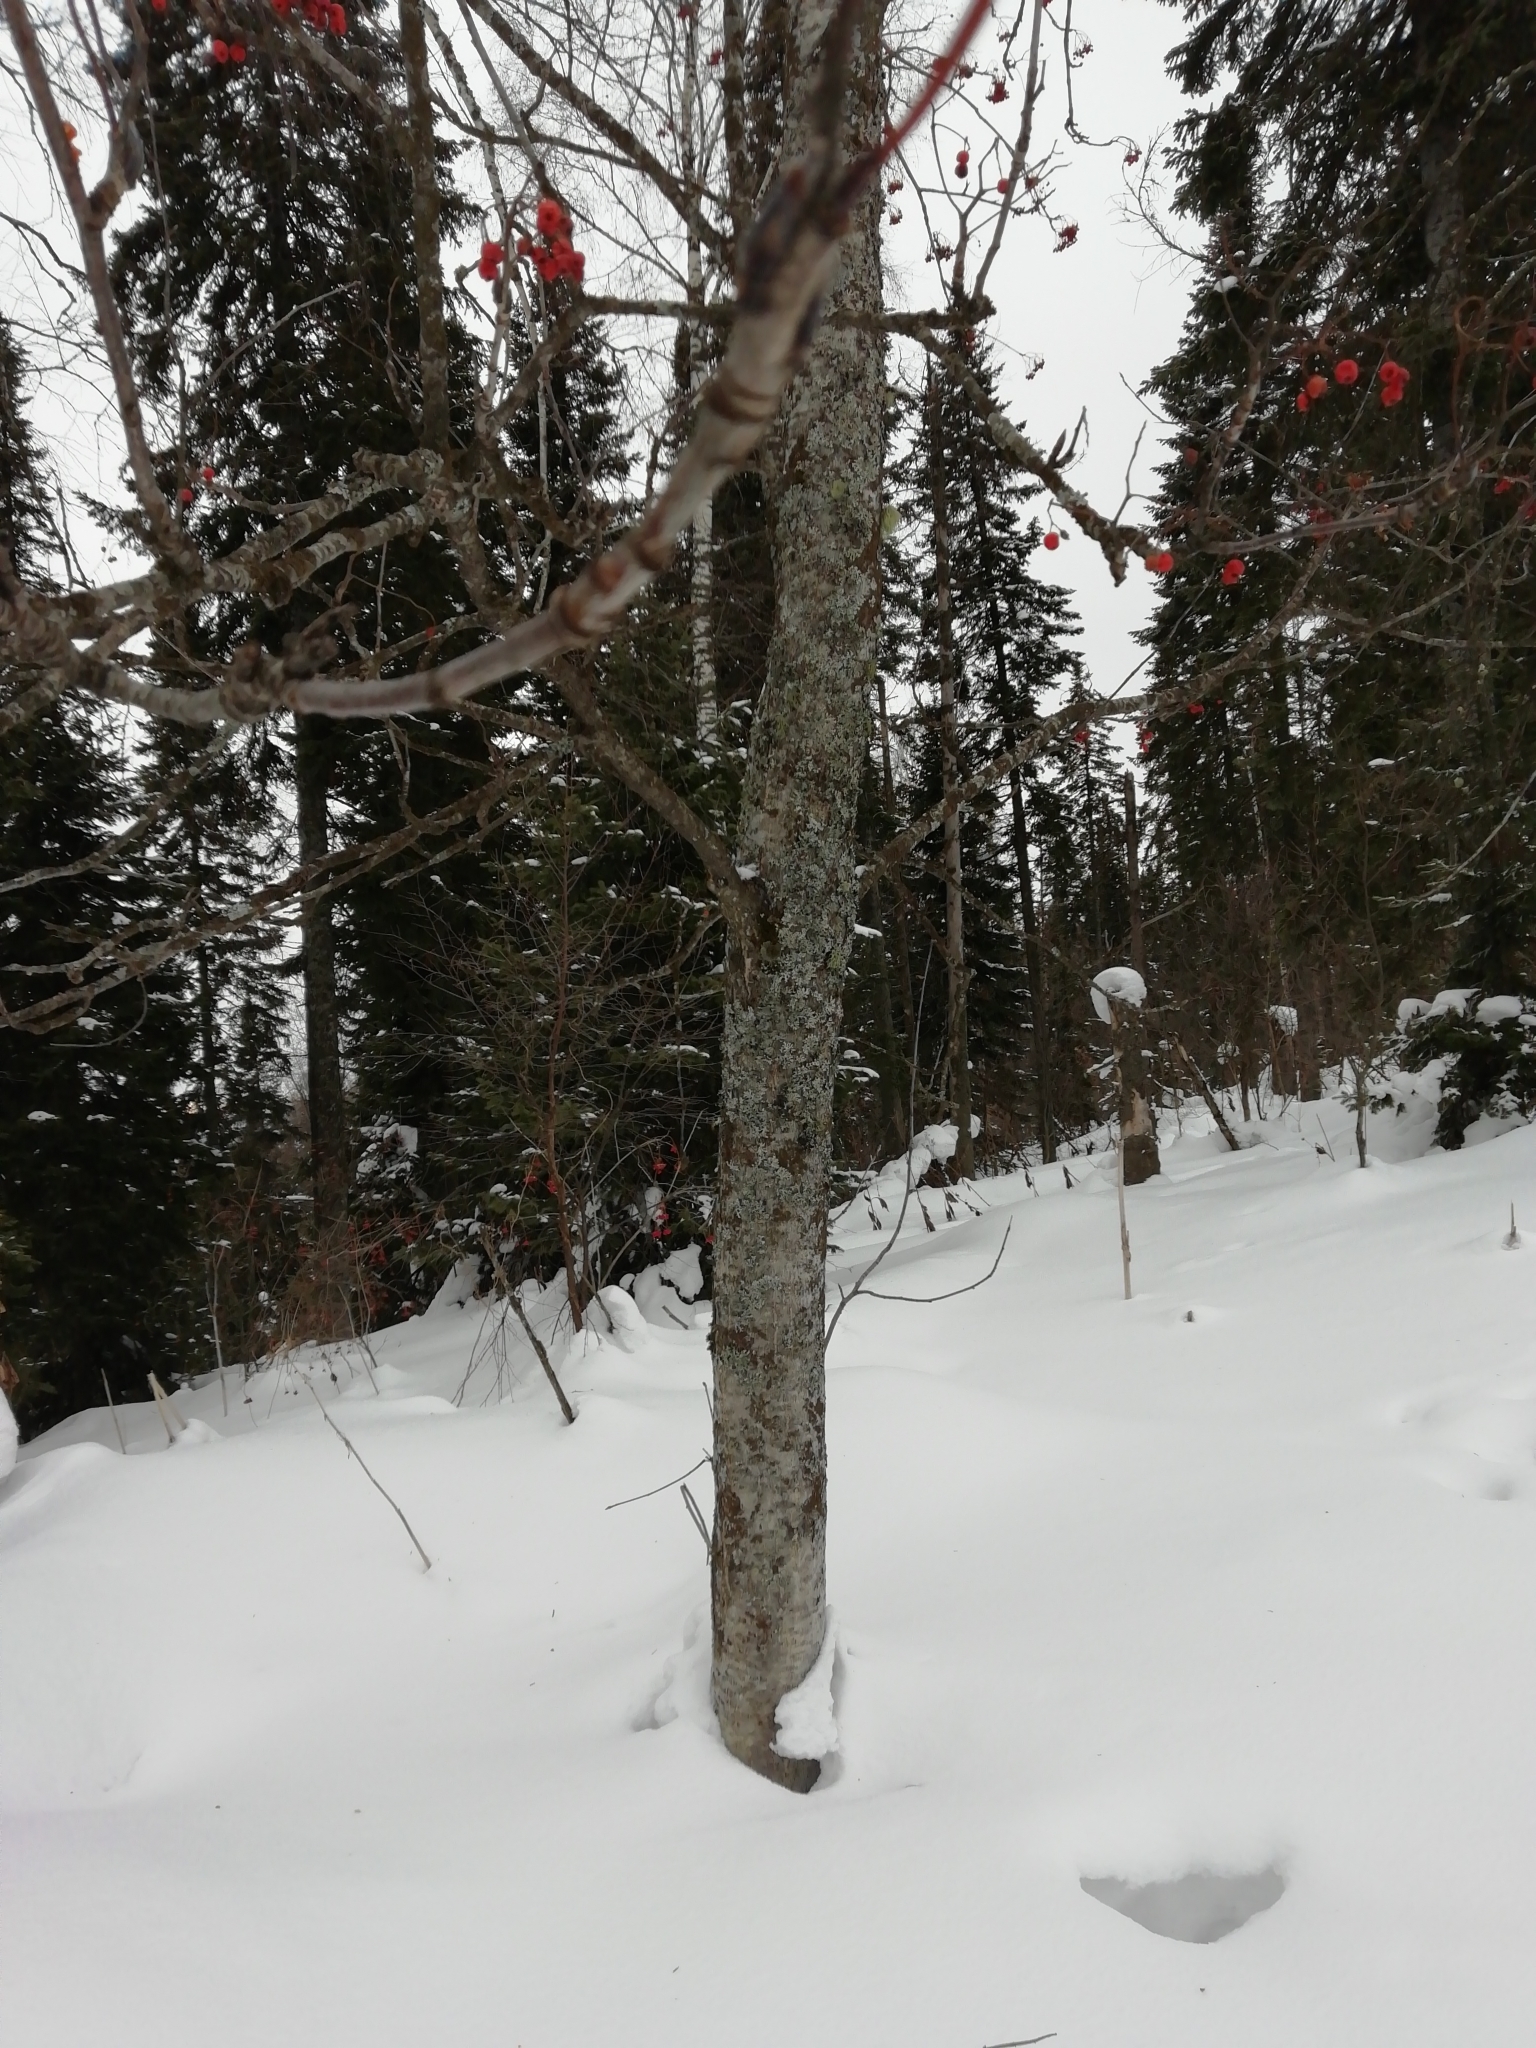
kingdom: Plantae
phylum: Tracheophyta
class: Magnoliopsida
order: Rosales
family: Rosaceae
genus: Sorbus
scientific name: Sorbus aucuparia
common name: Rowan
